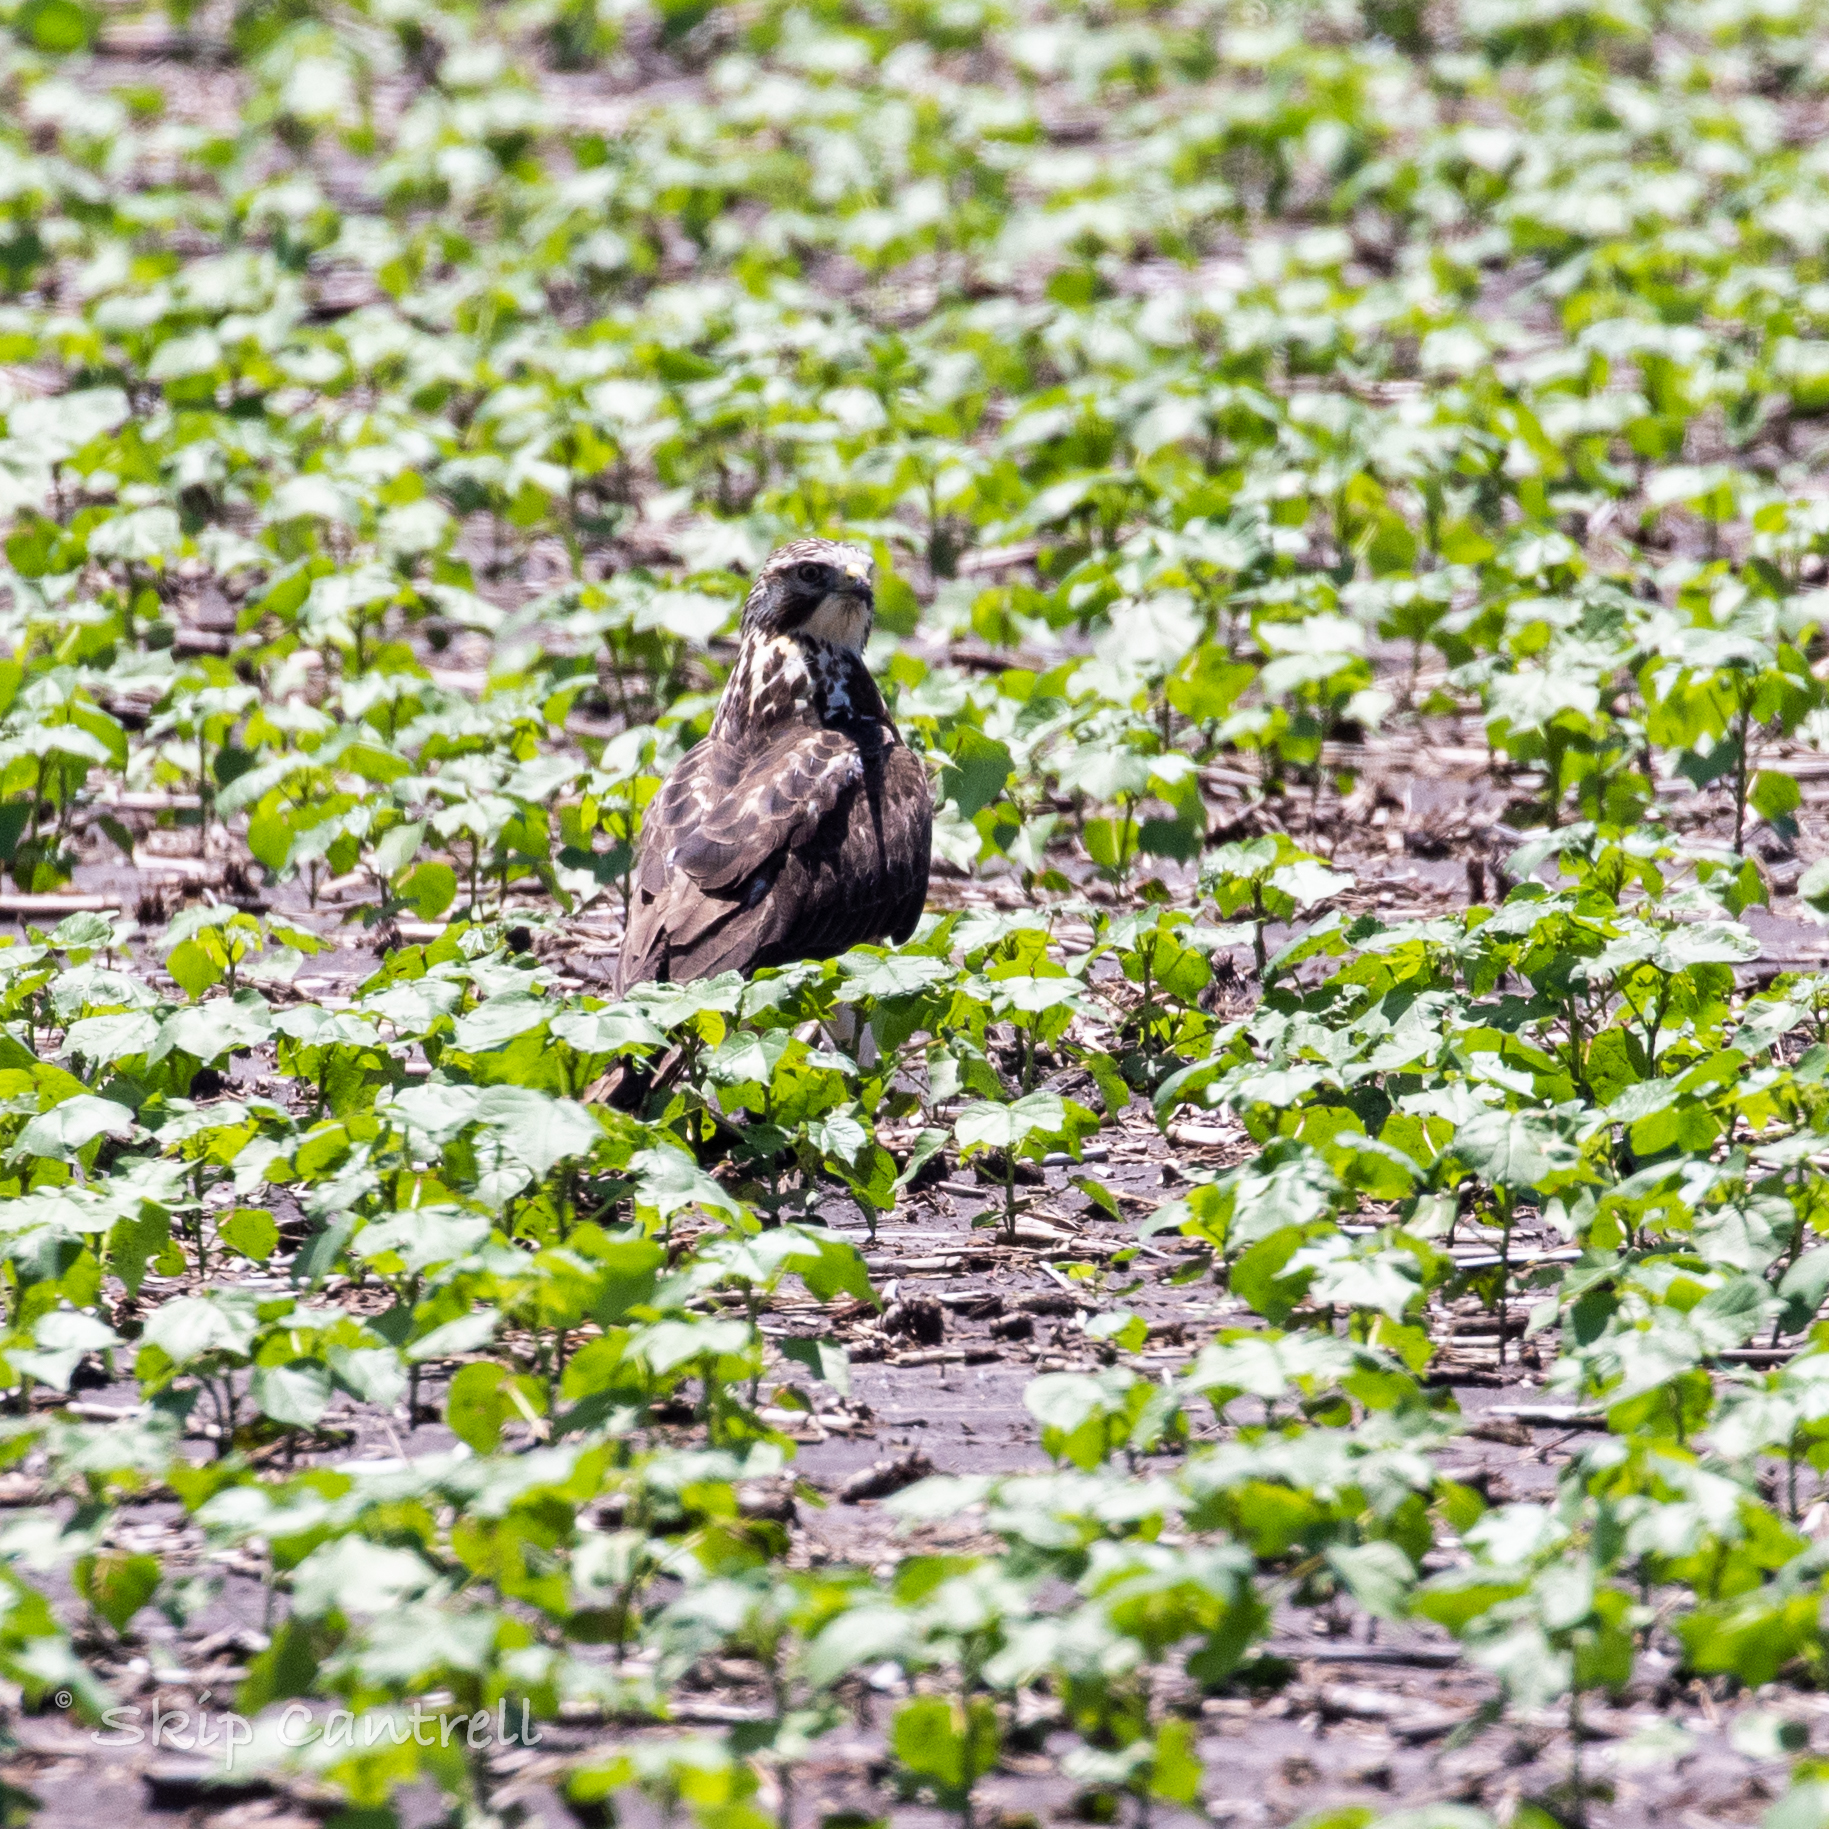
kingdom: Animalia
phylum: Chordata
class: Aves
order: Accipitriformes
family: Accipitridae
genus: Buteo
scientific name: Buteo swainsoni
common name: Swainson's hawk
